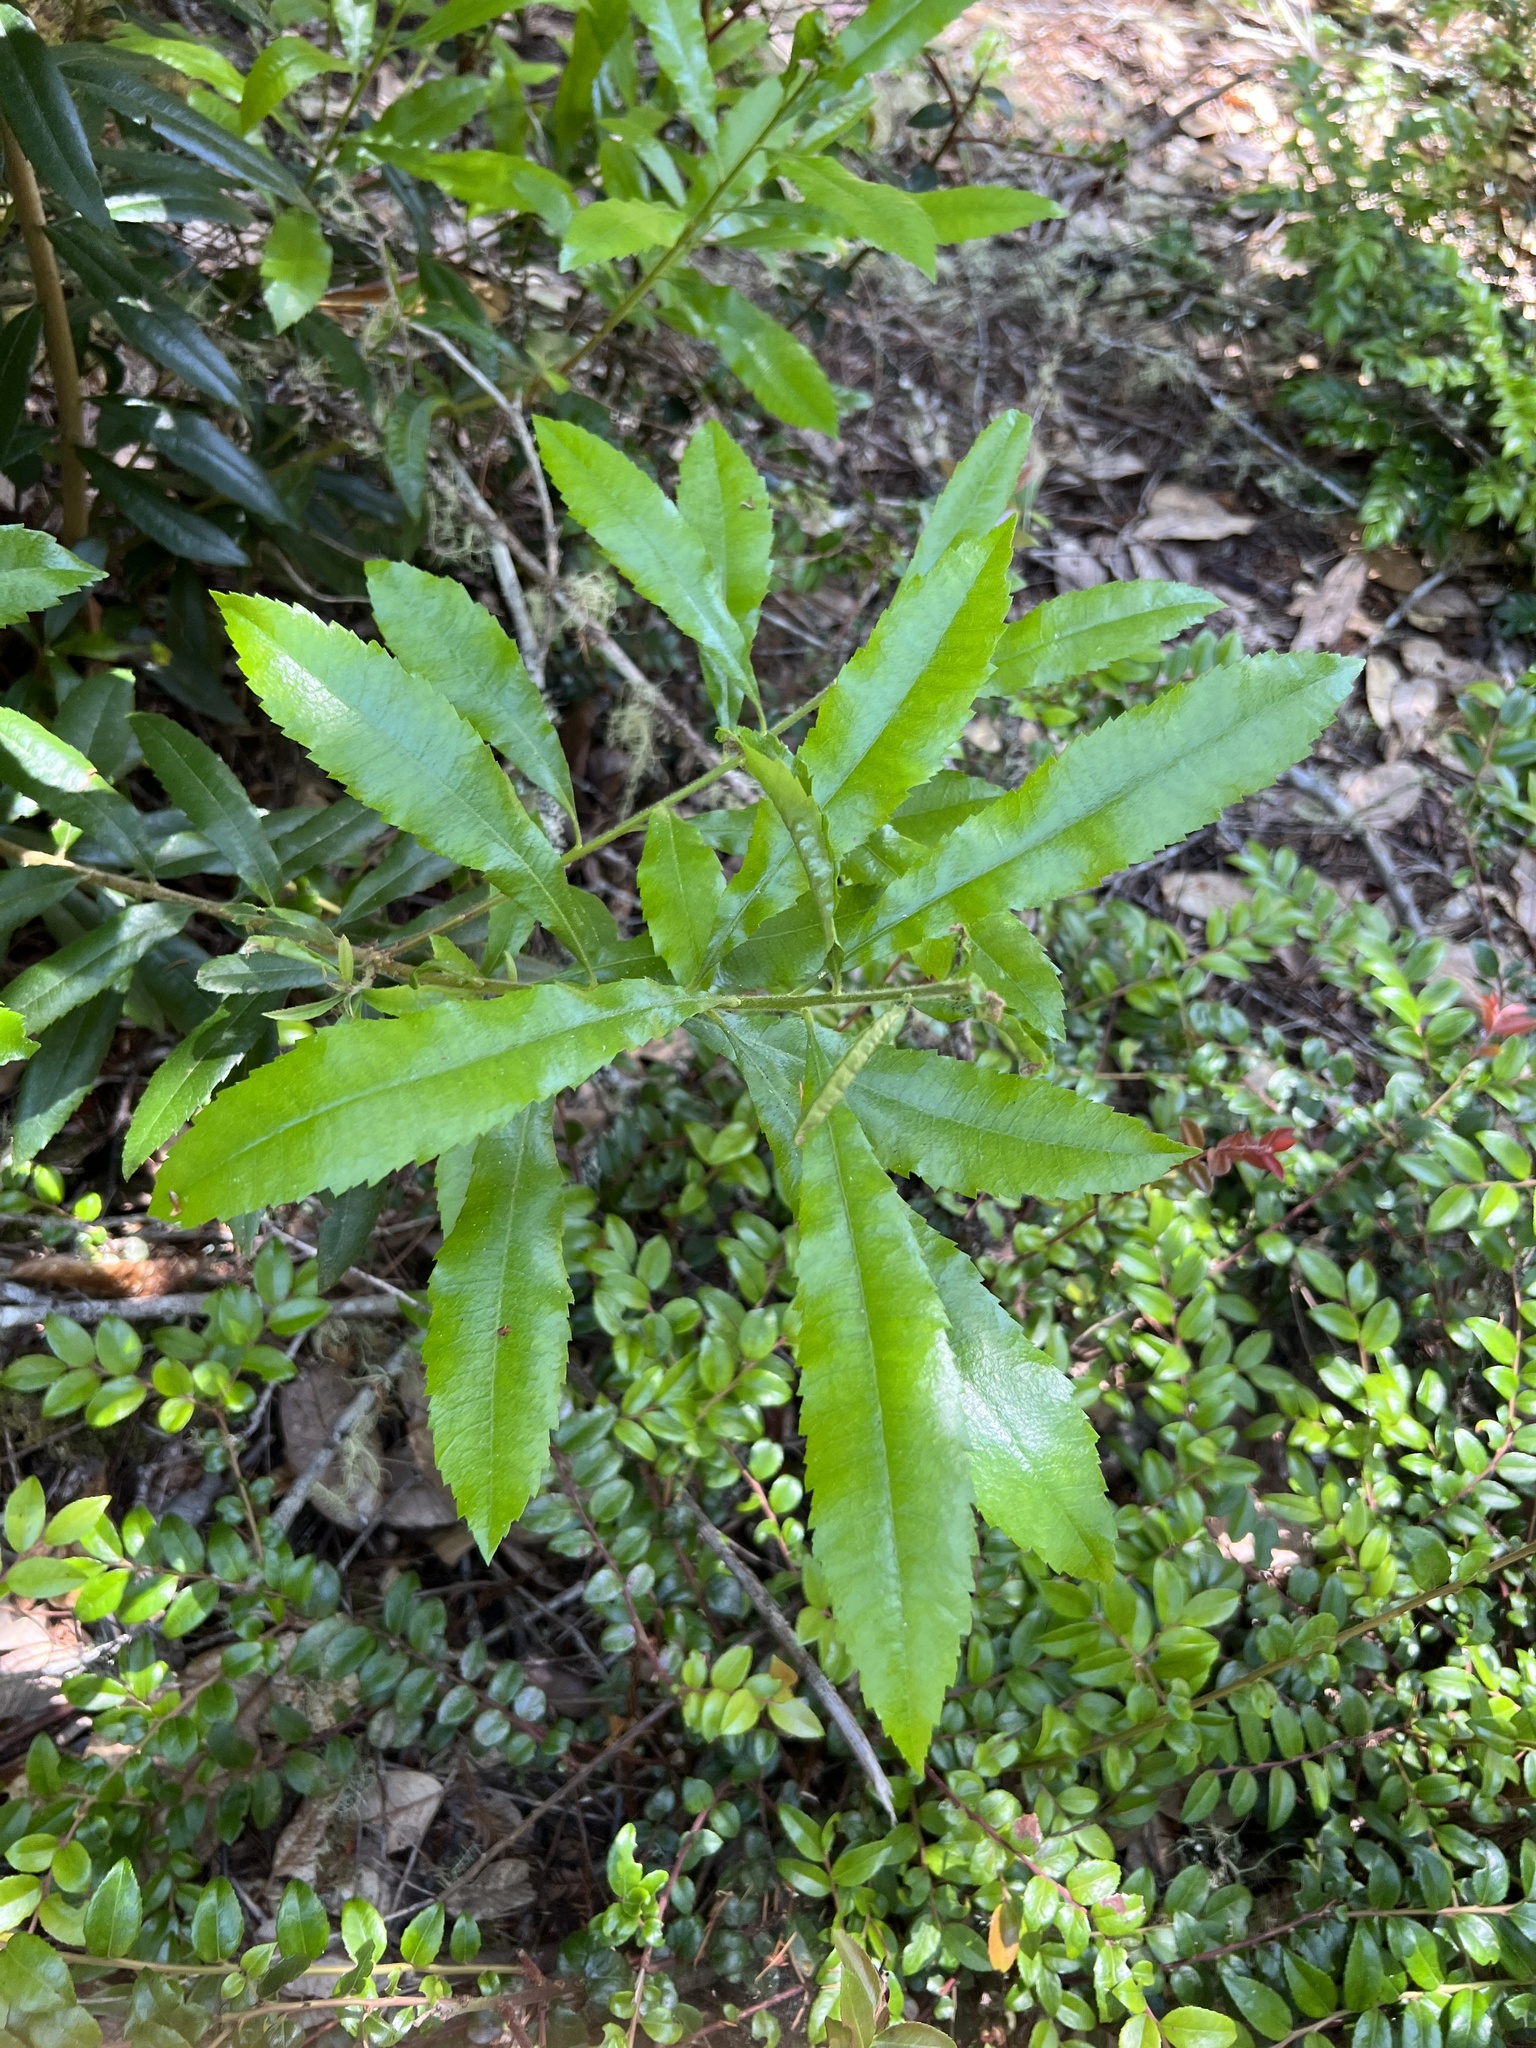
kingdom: Plantae
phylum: Tracheophyta
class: Magnoliopsida
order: Fagales
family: Myricaceae
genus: Morella
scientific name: Morella californica
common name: California wax-myrtle
